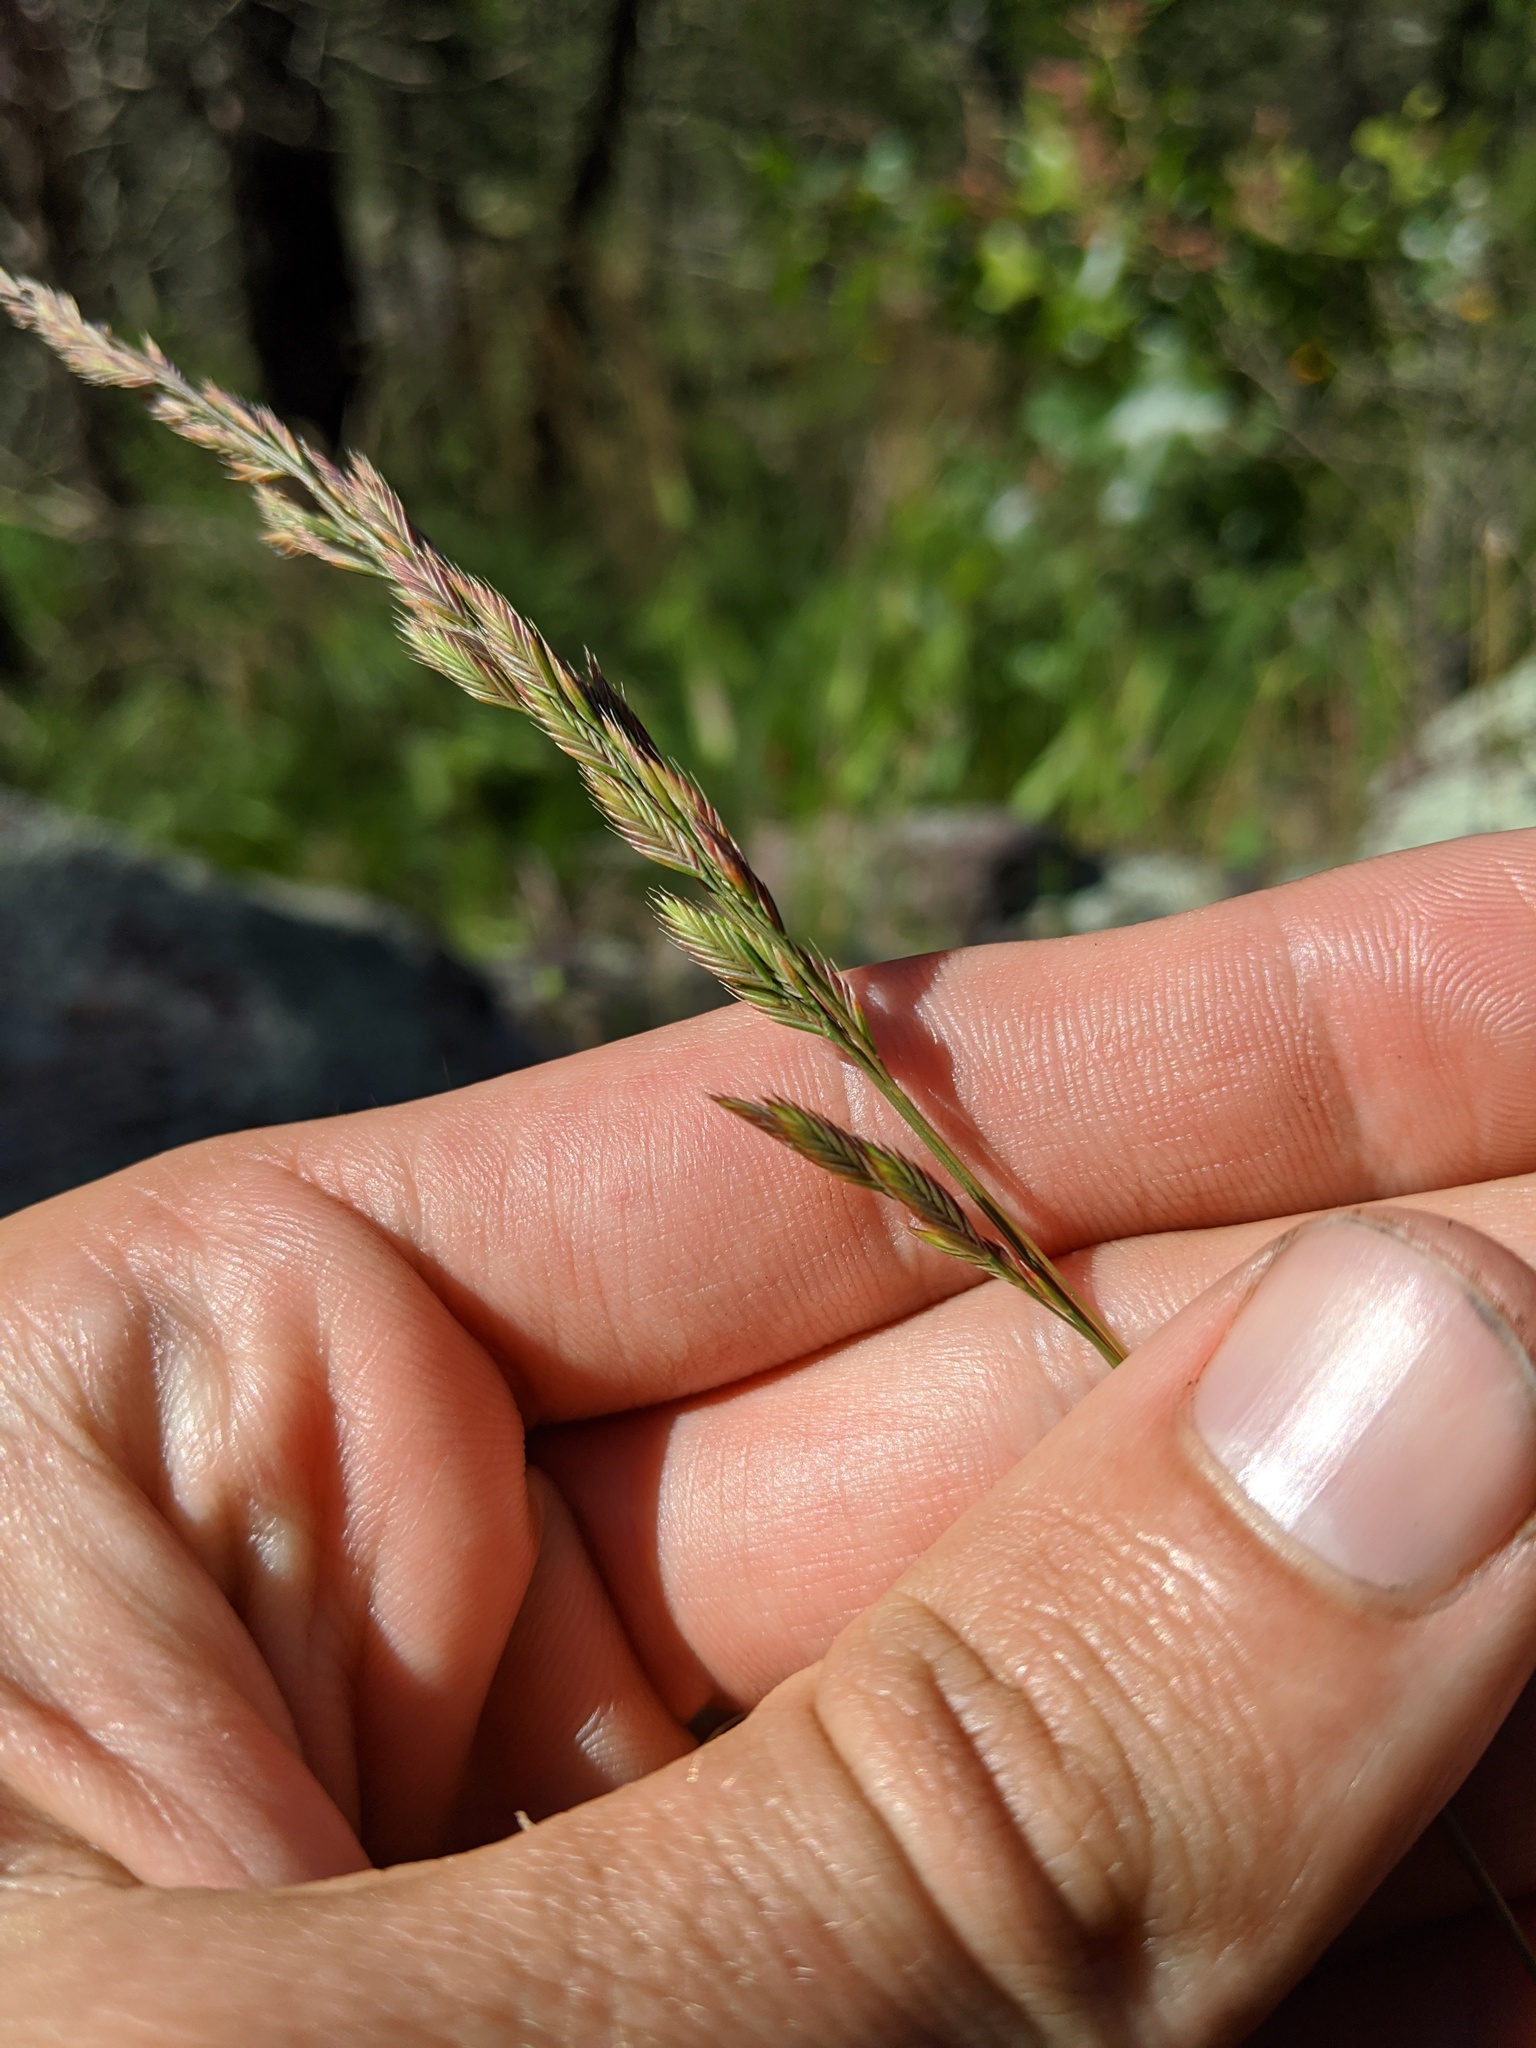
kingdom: Plantae
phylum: Tracheophyta
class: Liliopsida
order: Poales
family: Poaceae
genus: Festuca
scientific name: Festuca octoflora
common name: Sixweeks grass
